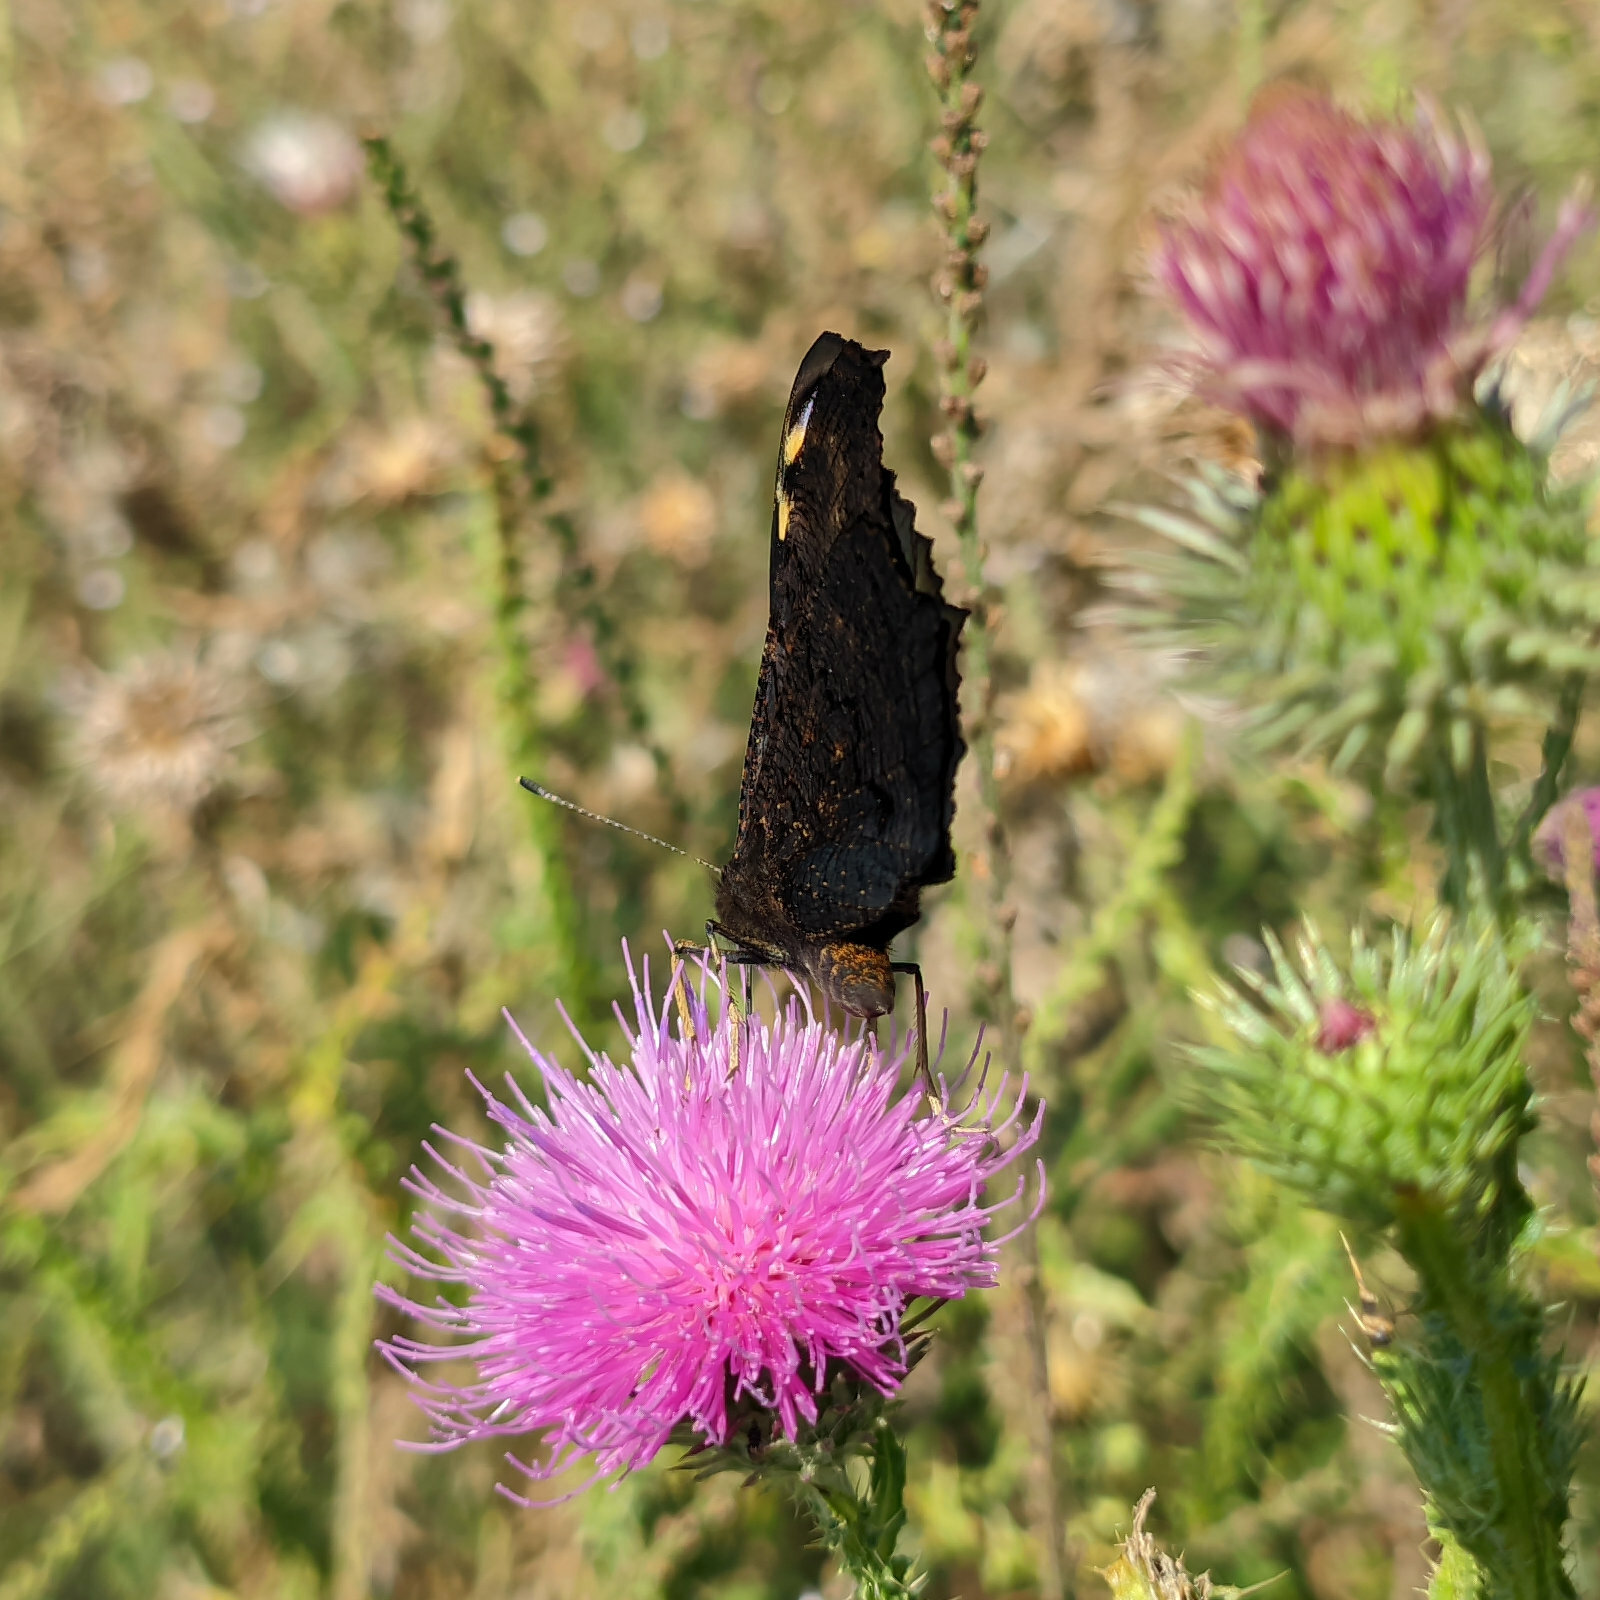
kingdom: Animalia
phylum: Arthropoda
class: Insecta
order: Lepidoptera
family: Nymphalidae
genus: Aglais
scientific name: Aglais io
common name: Peacock
